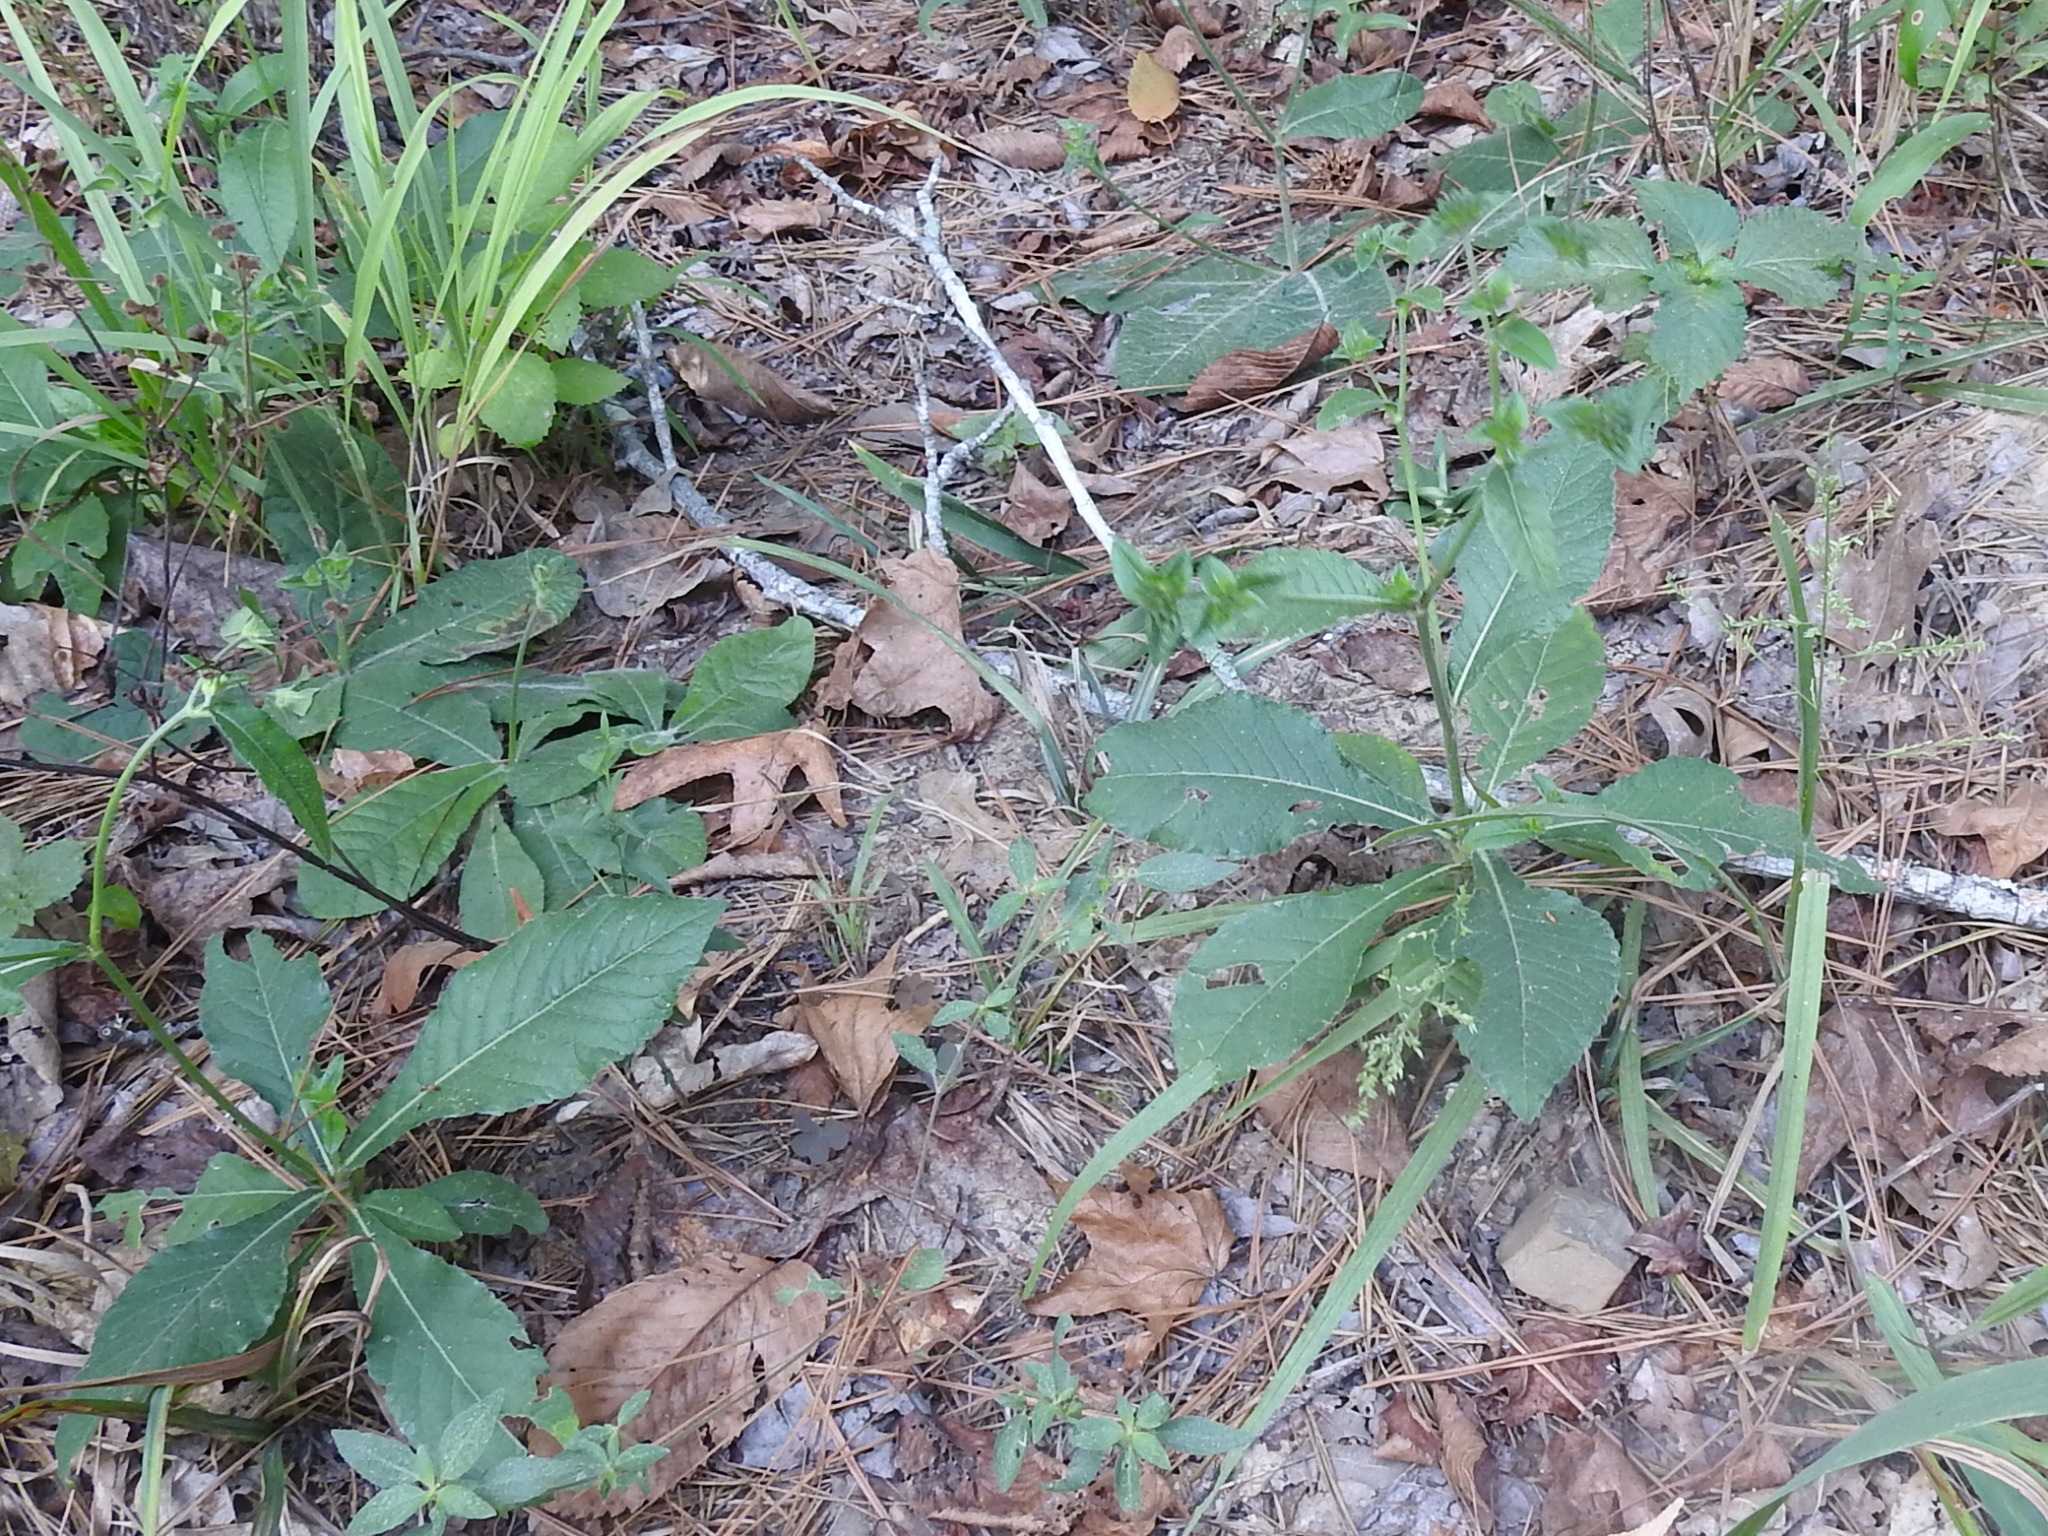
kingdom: Plantae
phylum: Tracheophyta
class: Magnoliopsida
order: Asterales
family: Asteraceae
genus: Elephantopus
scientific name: Elephantopus carolinianus
